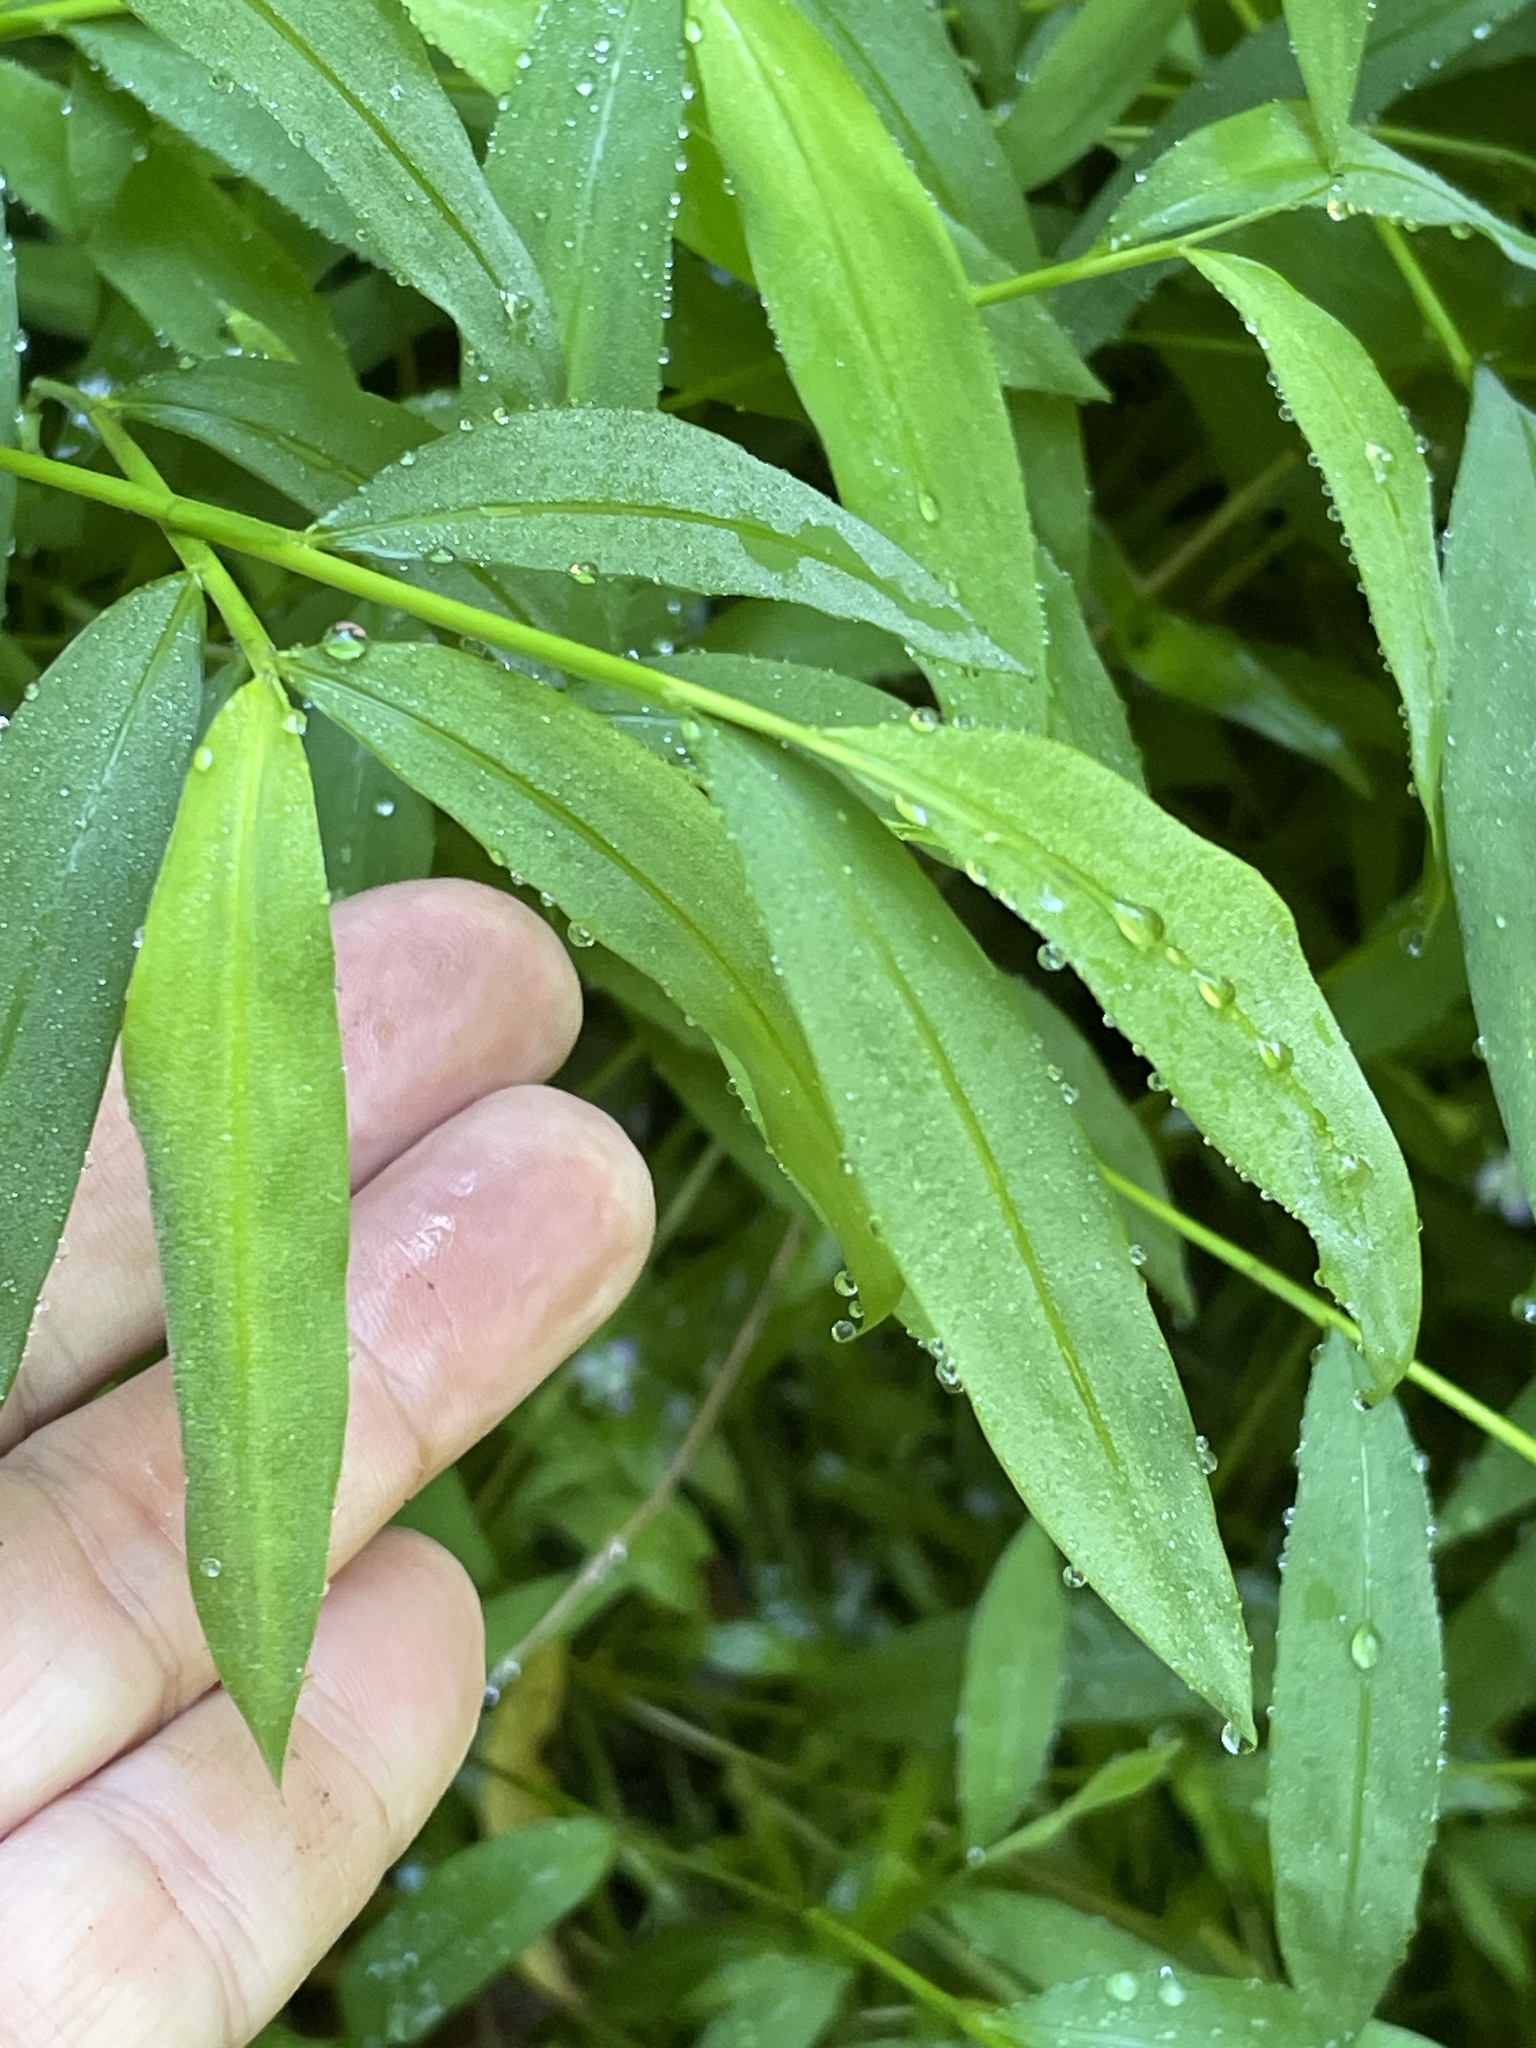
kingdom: Plantae
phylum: Tracheophyta
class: Liliopsida
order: Poales
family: Poaceae
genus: Microstegium
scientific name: Microstegium vimineum
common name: Japanese stiltgrass
